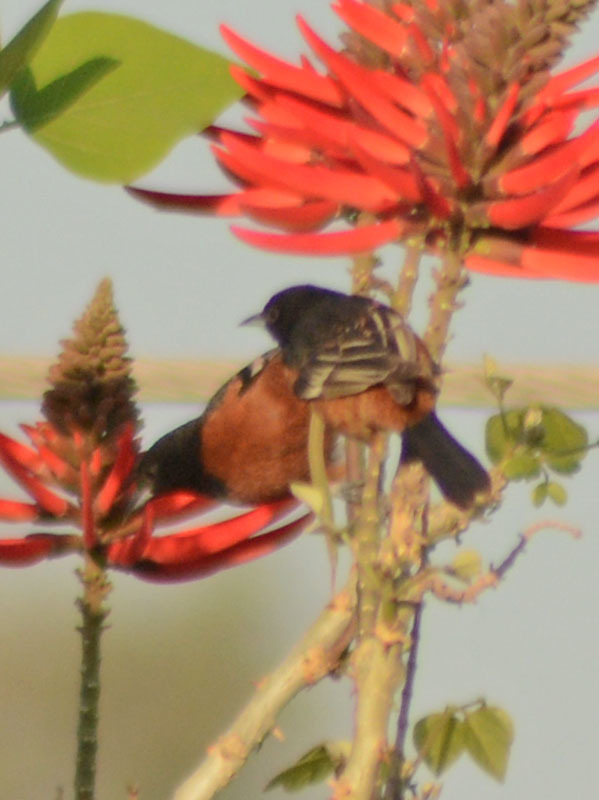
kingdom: Animalia
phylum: Chordata
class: Aves
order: Passeriformes
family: Icteridae
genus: Icterus
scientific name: Icterus spurius
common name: Orchard oriole
